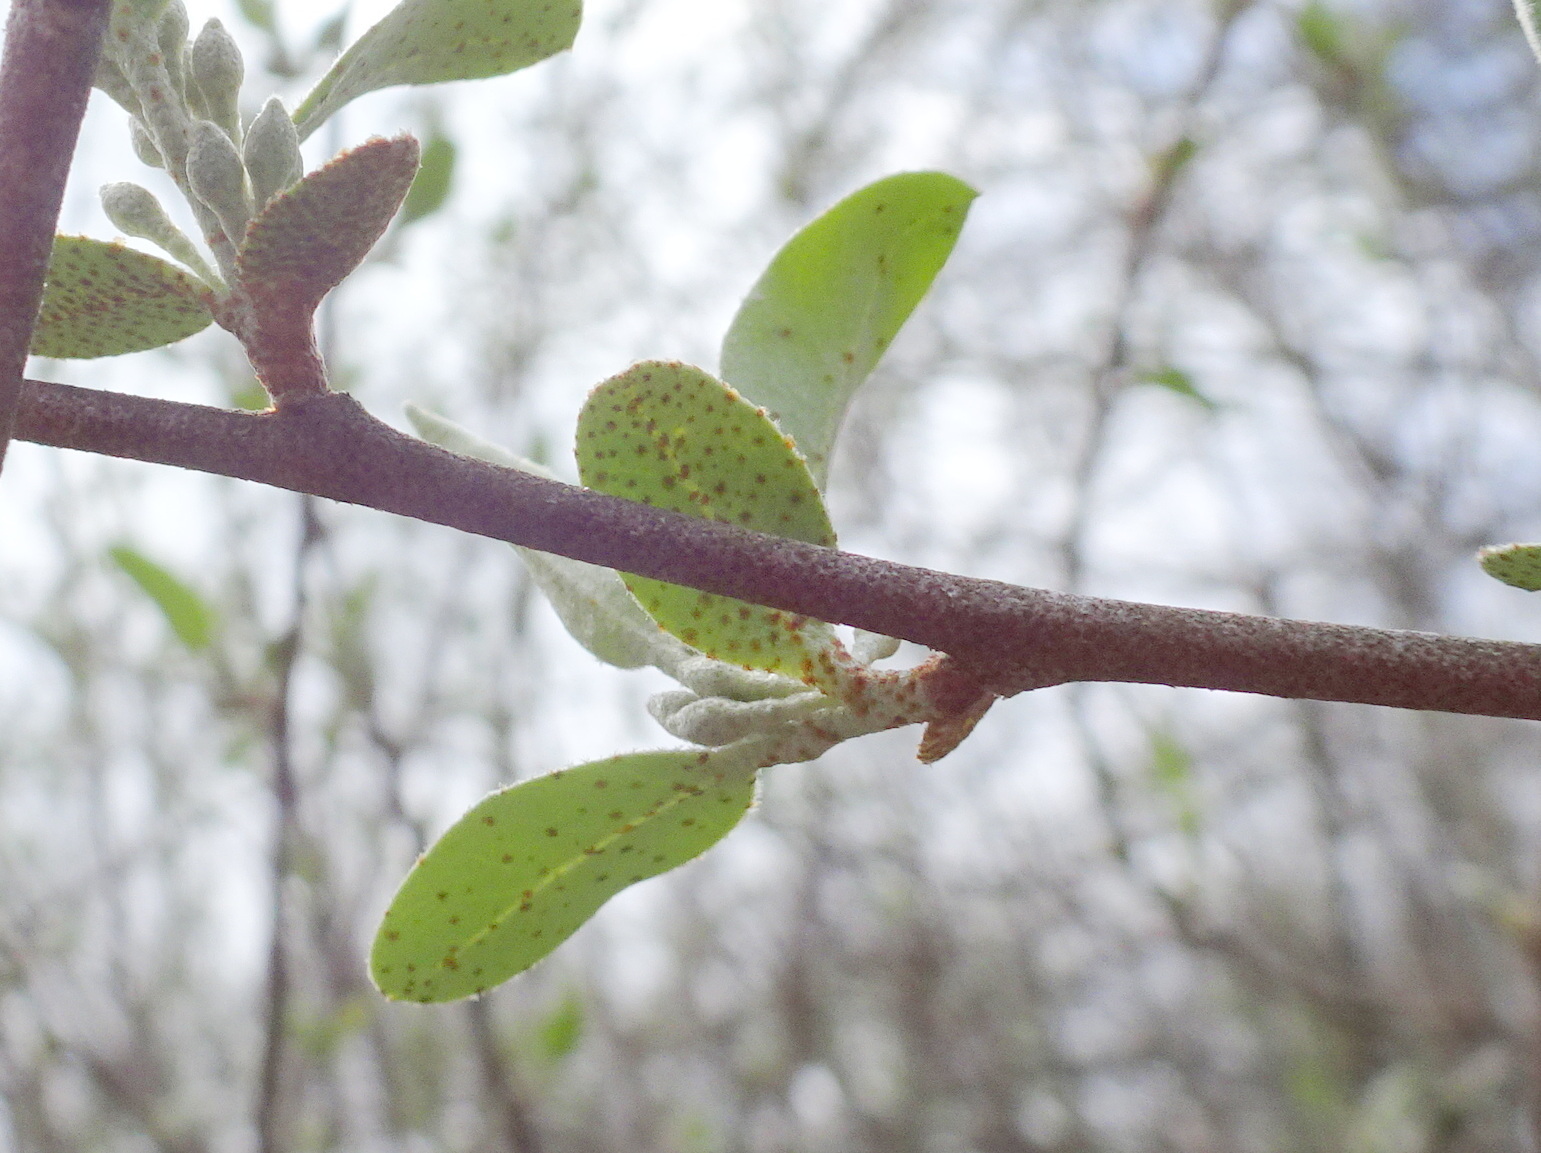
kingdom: Plantae
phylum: Tracheophyta
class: Magnoliopsida
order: Rosales
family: Elaeagnaceae
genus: Elaeagnus
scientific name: Elaeagnus umbellata
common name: Autumn olive
